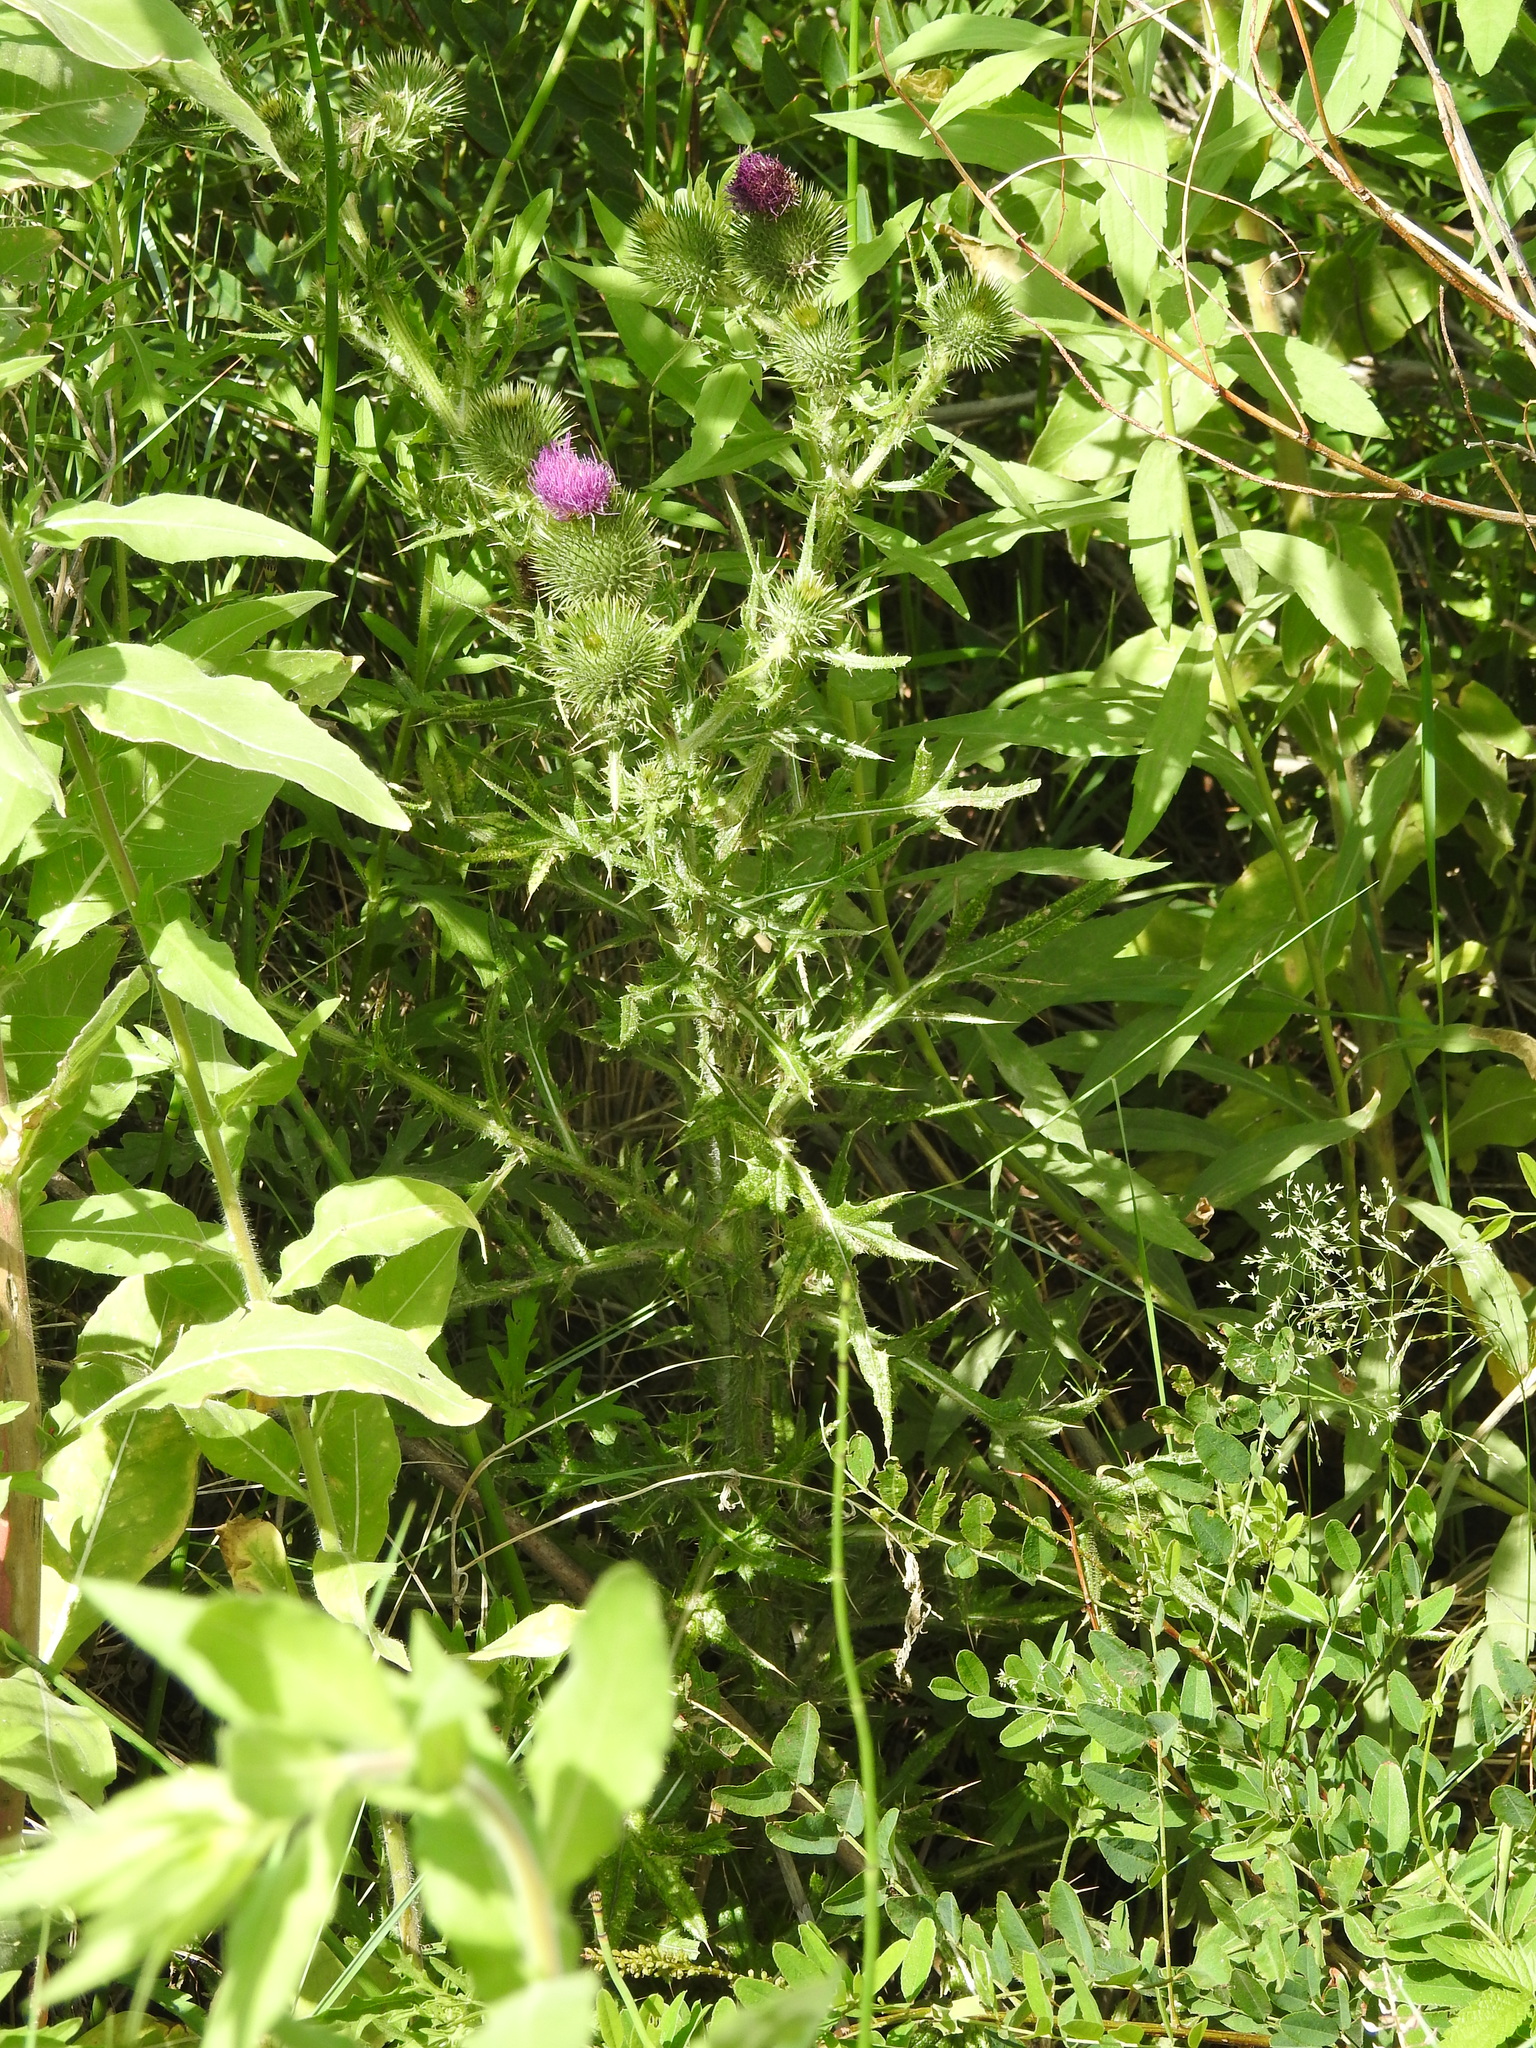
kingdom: Plantae
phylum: Tracheophyta
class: Magnoliopsida
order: Asterales
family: Asteraceae
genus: Cirsium
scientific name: Cirsium vulgare
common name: Bull thistle
